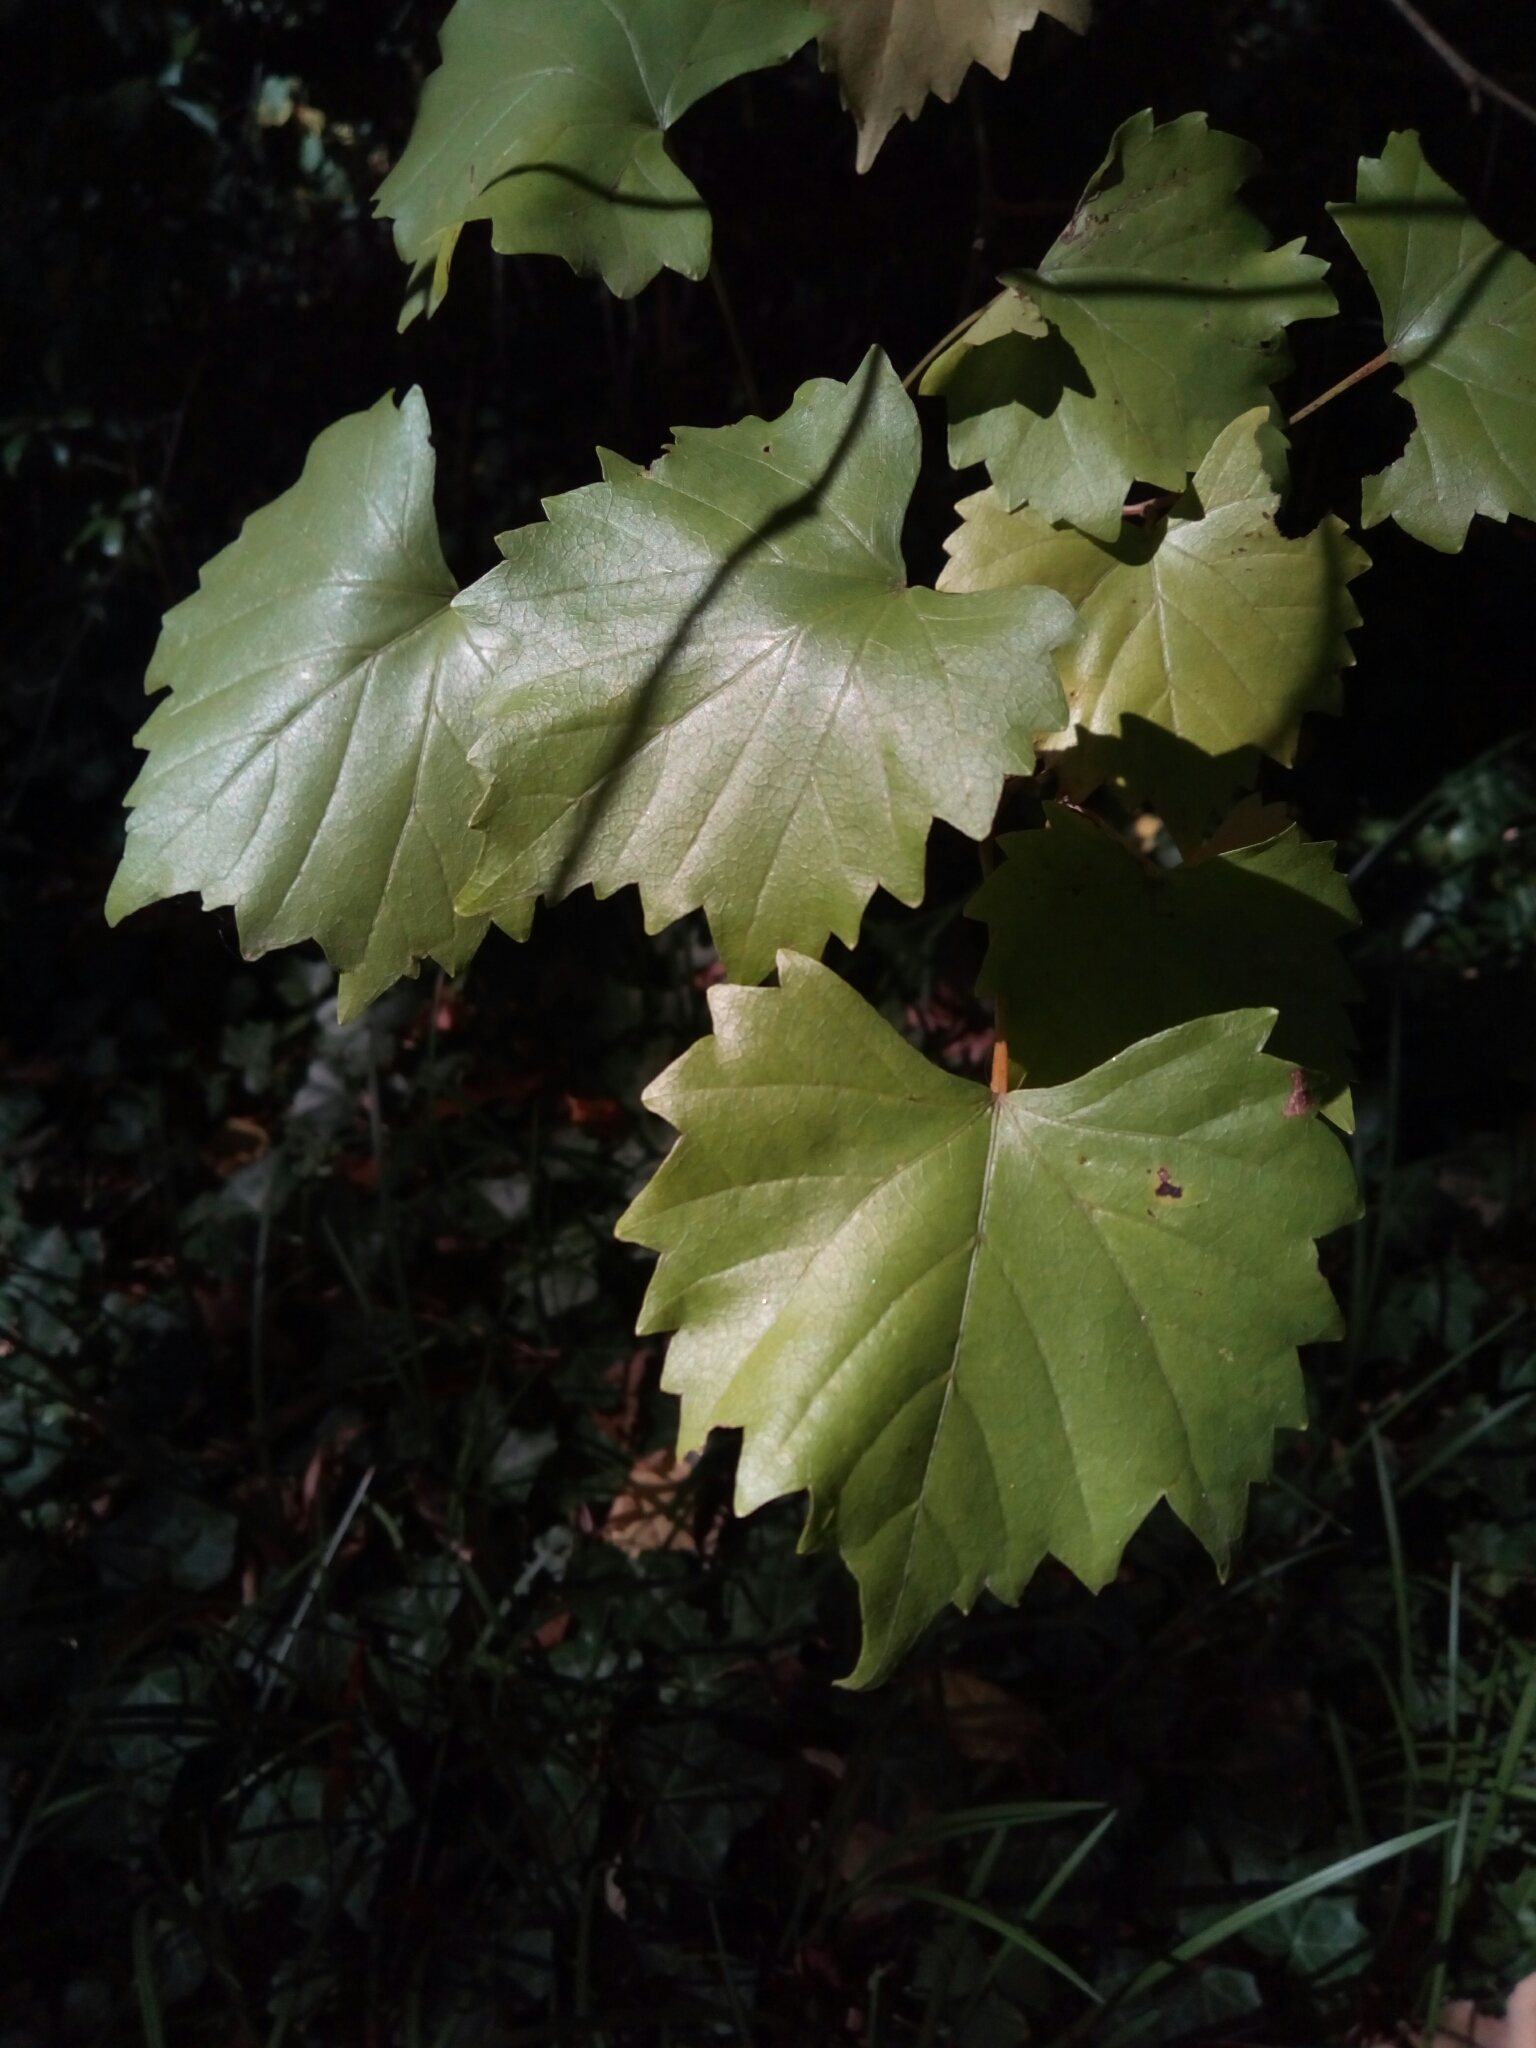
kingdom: Plantae
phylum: Tracheophyta
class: Magnoliopsida
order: Vitales
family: Vitaceae
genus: Vitis
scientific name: Vitis rotundifolia
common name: Muscadine grape
